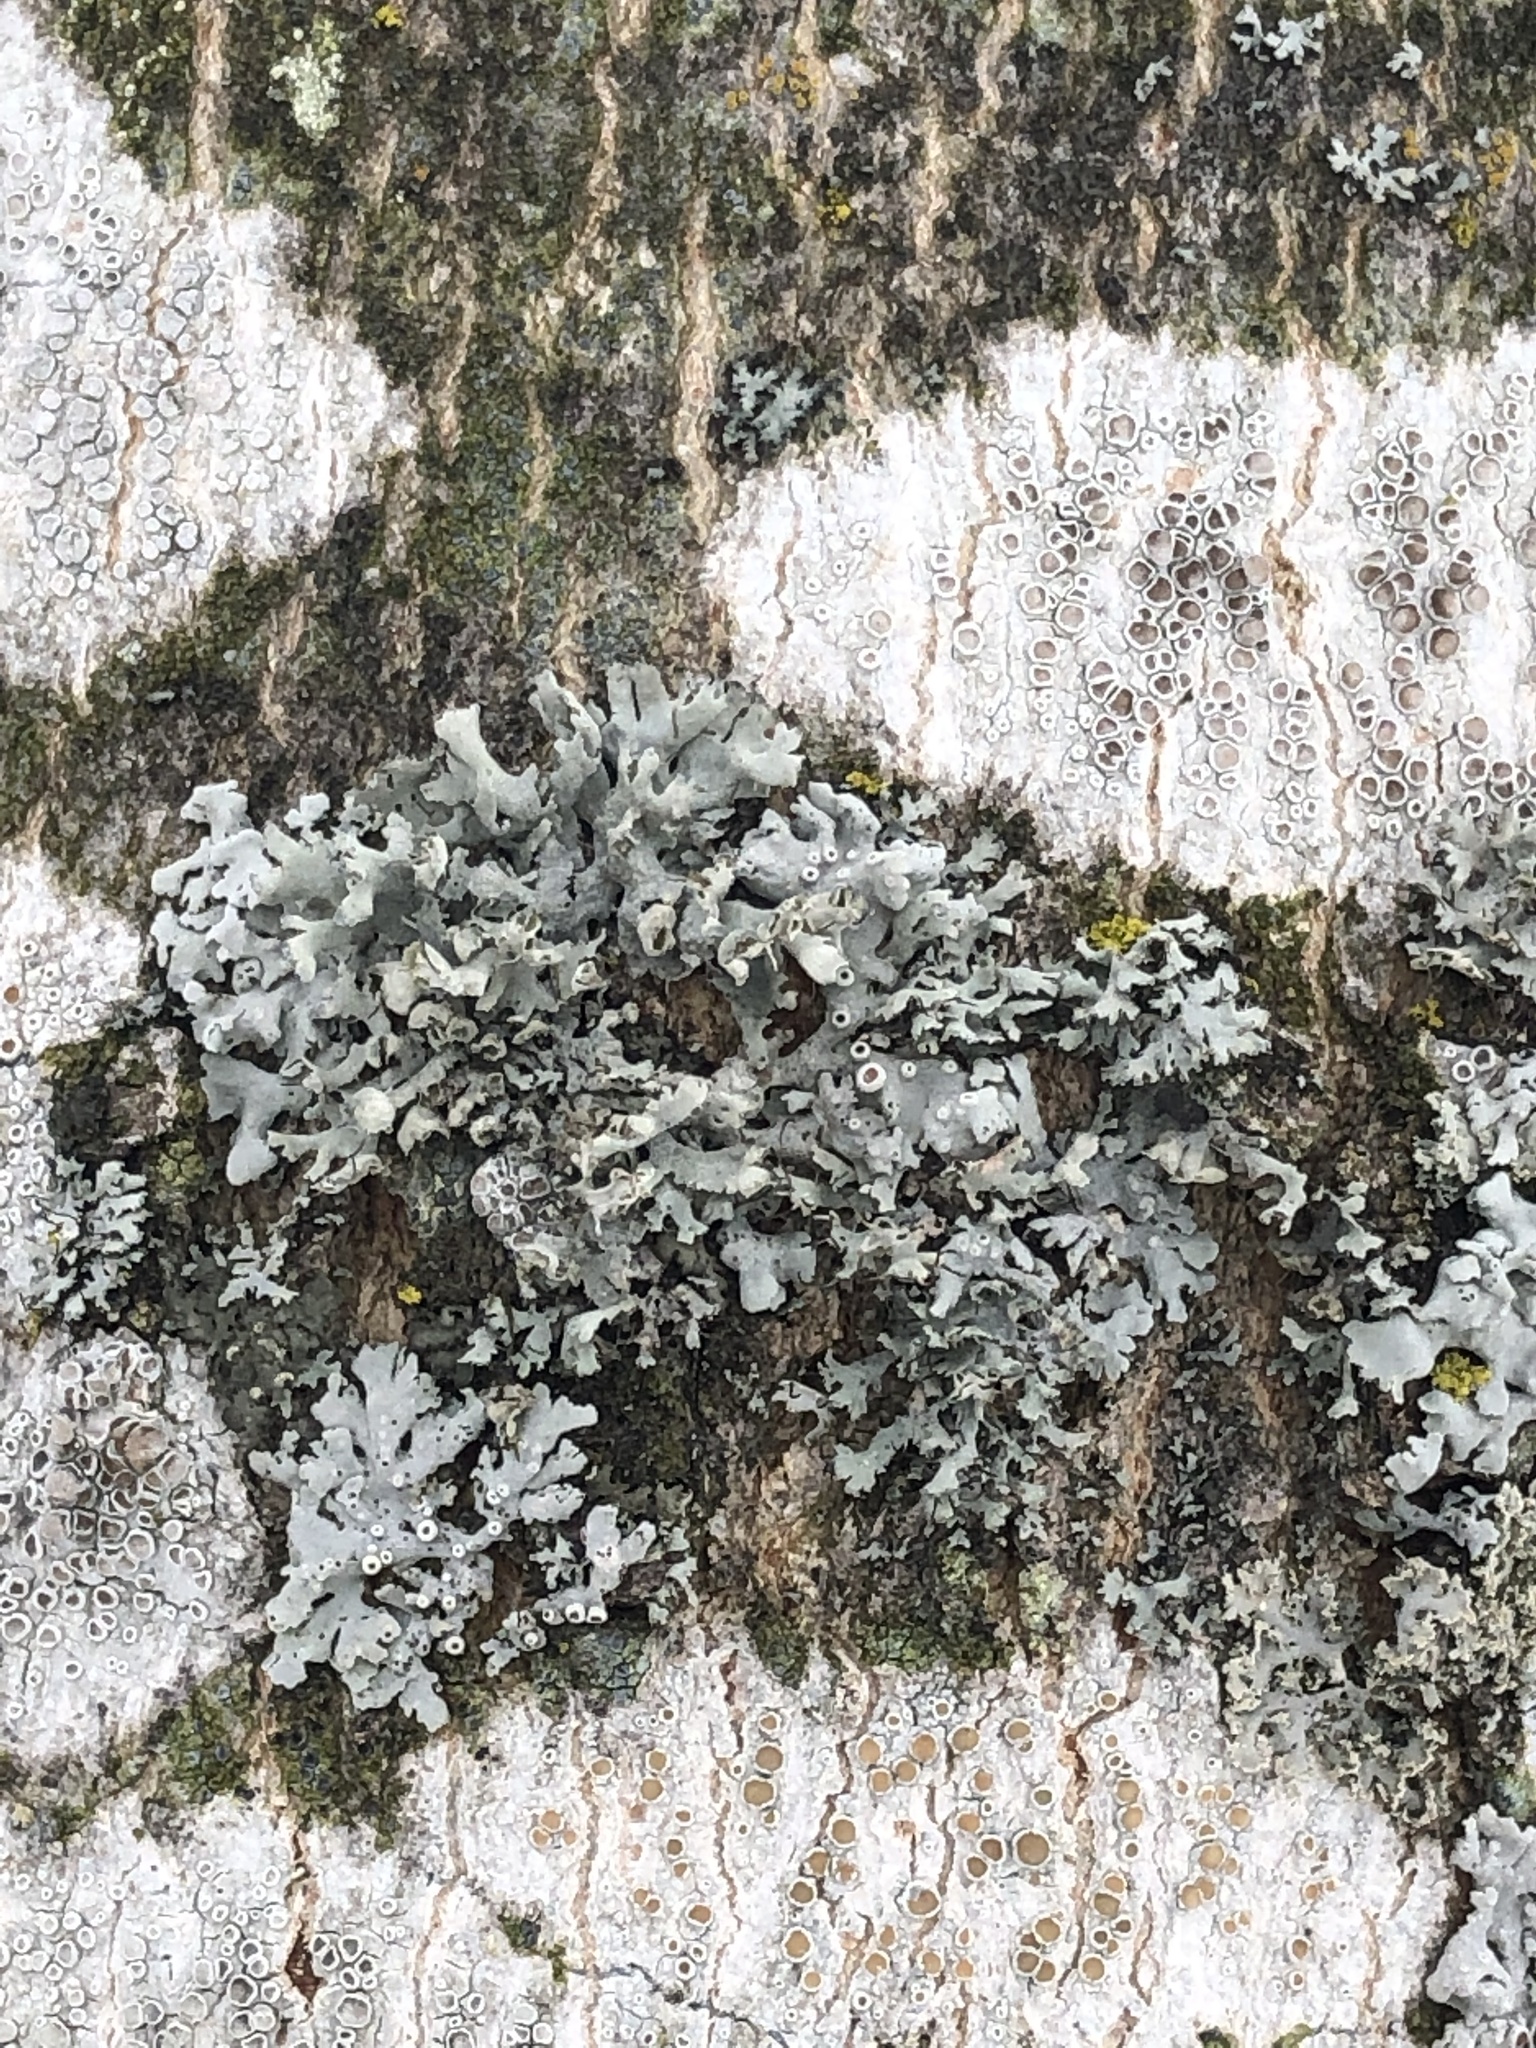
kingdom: Fungi
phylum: Ascomycota
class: Lecanoromycetes
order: Caliciales
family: Physciaceae
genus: Physcia
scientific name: Physcia adscendens
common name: Hooded rosette lichen
